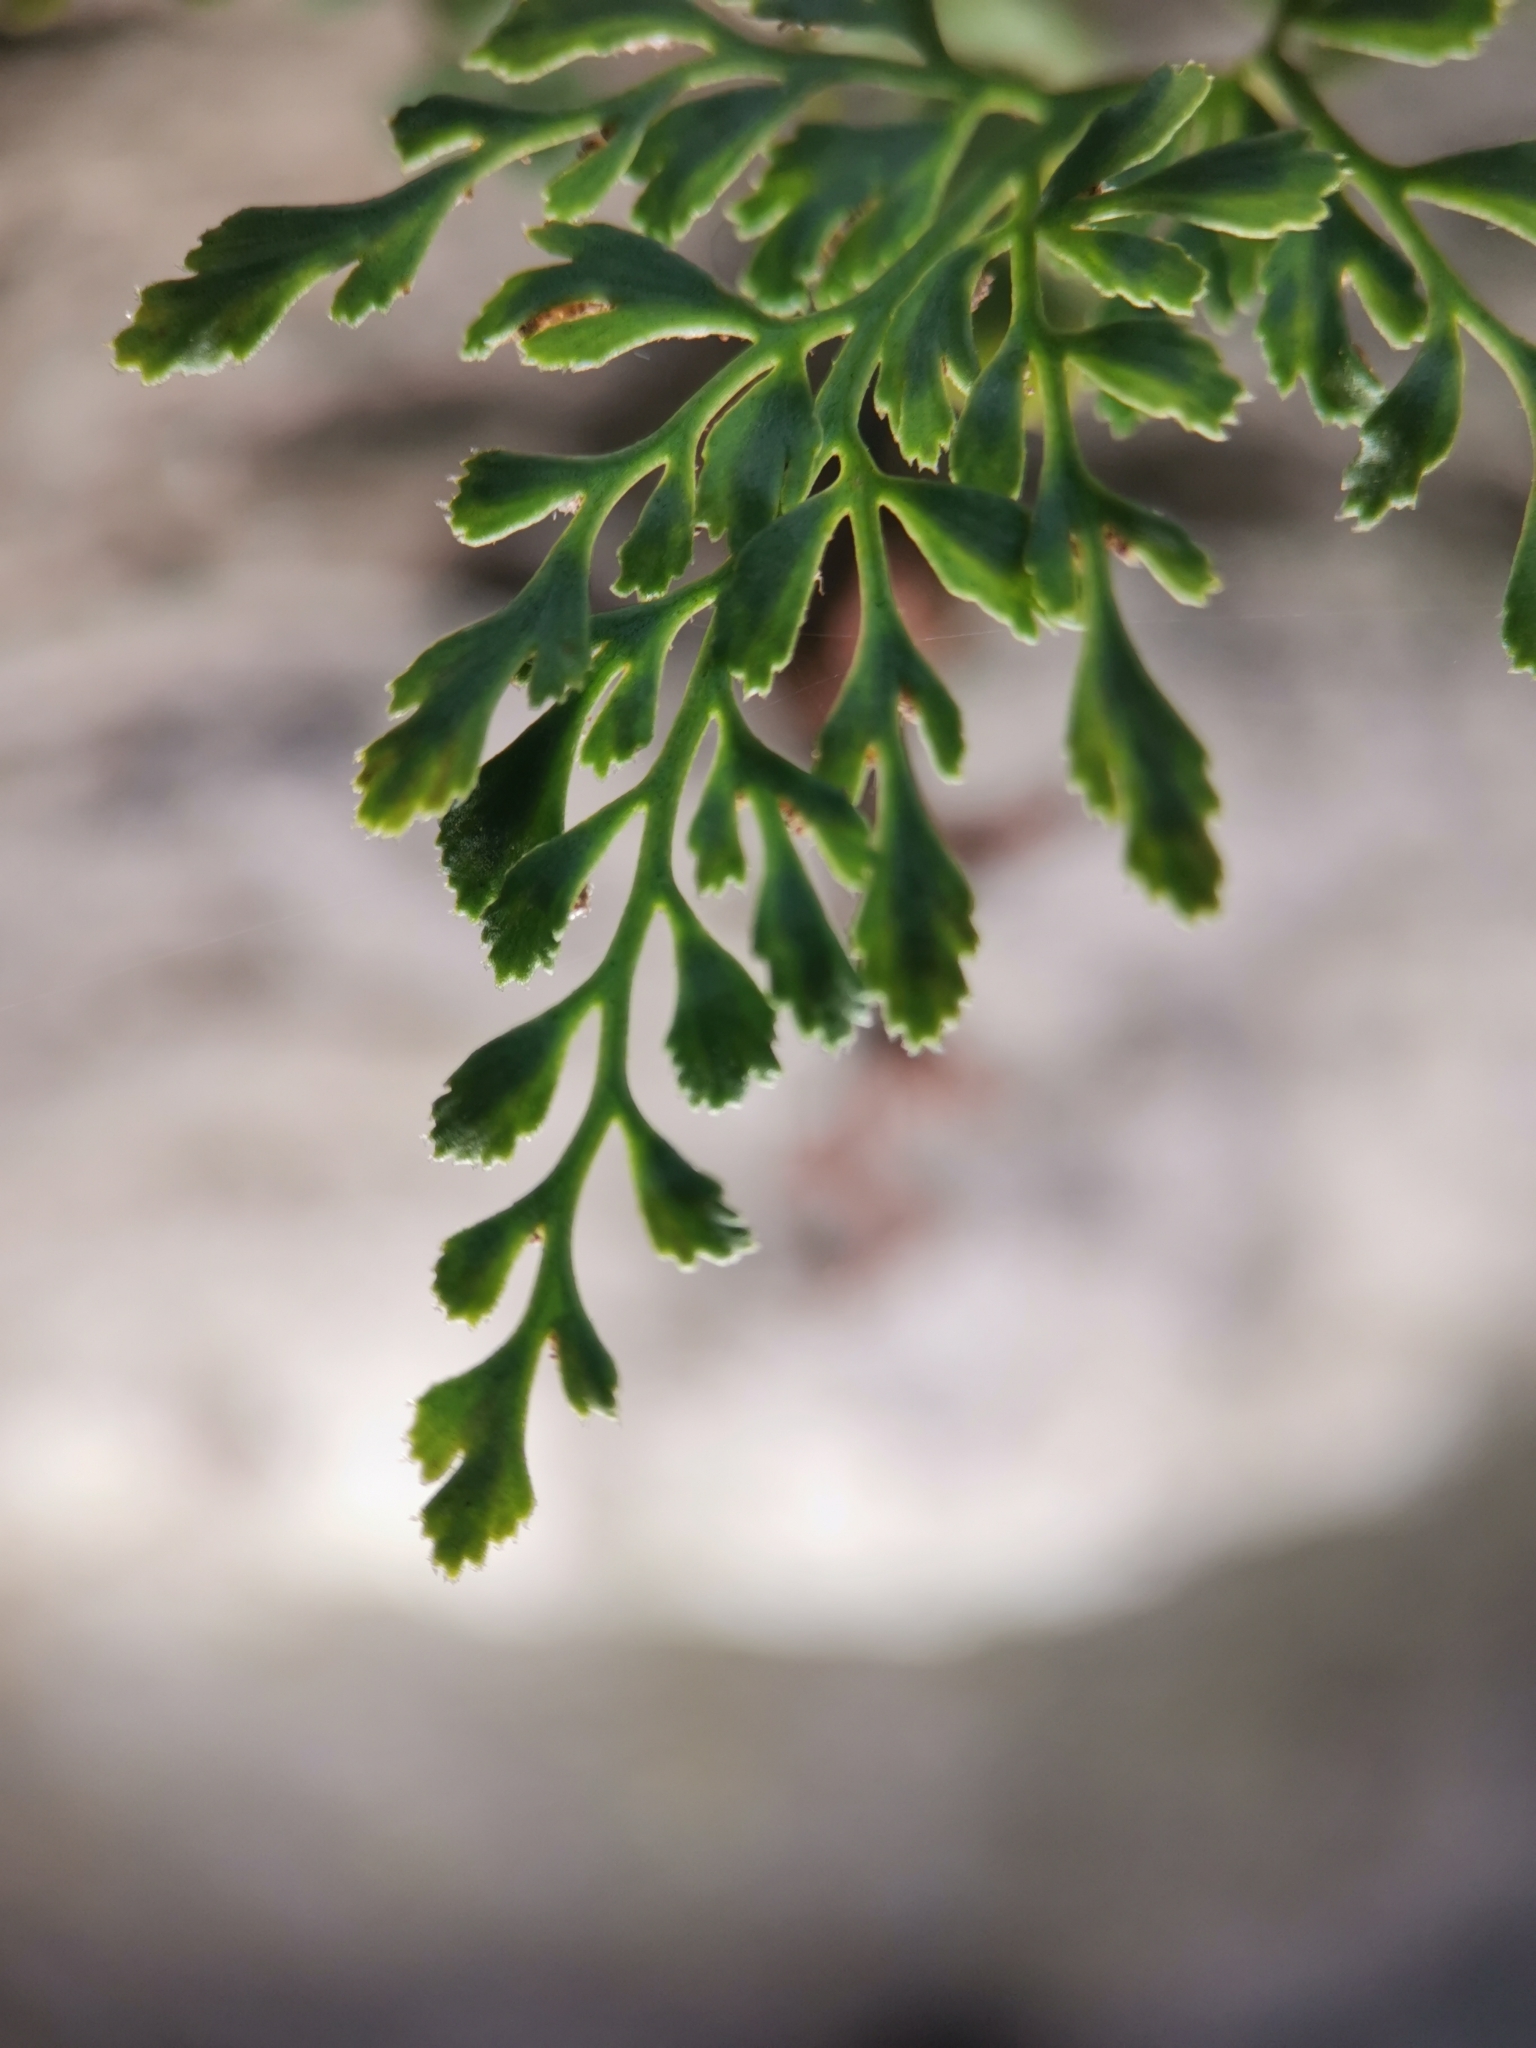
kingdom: Plantae
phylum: Tracheophyta
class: Polypodiopsida
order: Polypodiales
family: Aspleniaceae
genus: Asplenium
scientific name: Asplenium ruta-muraria
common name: Wall-rue
